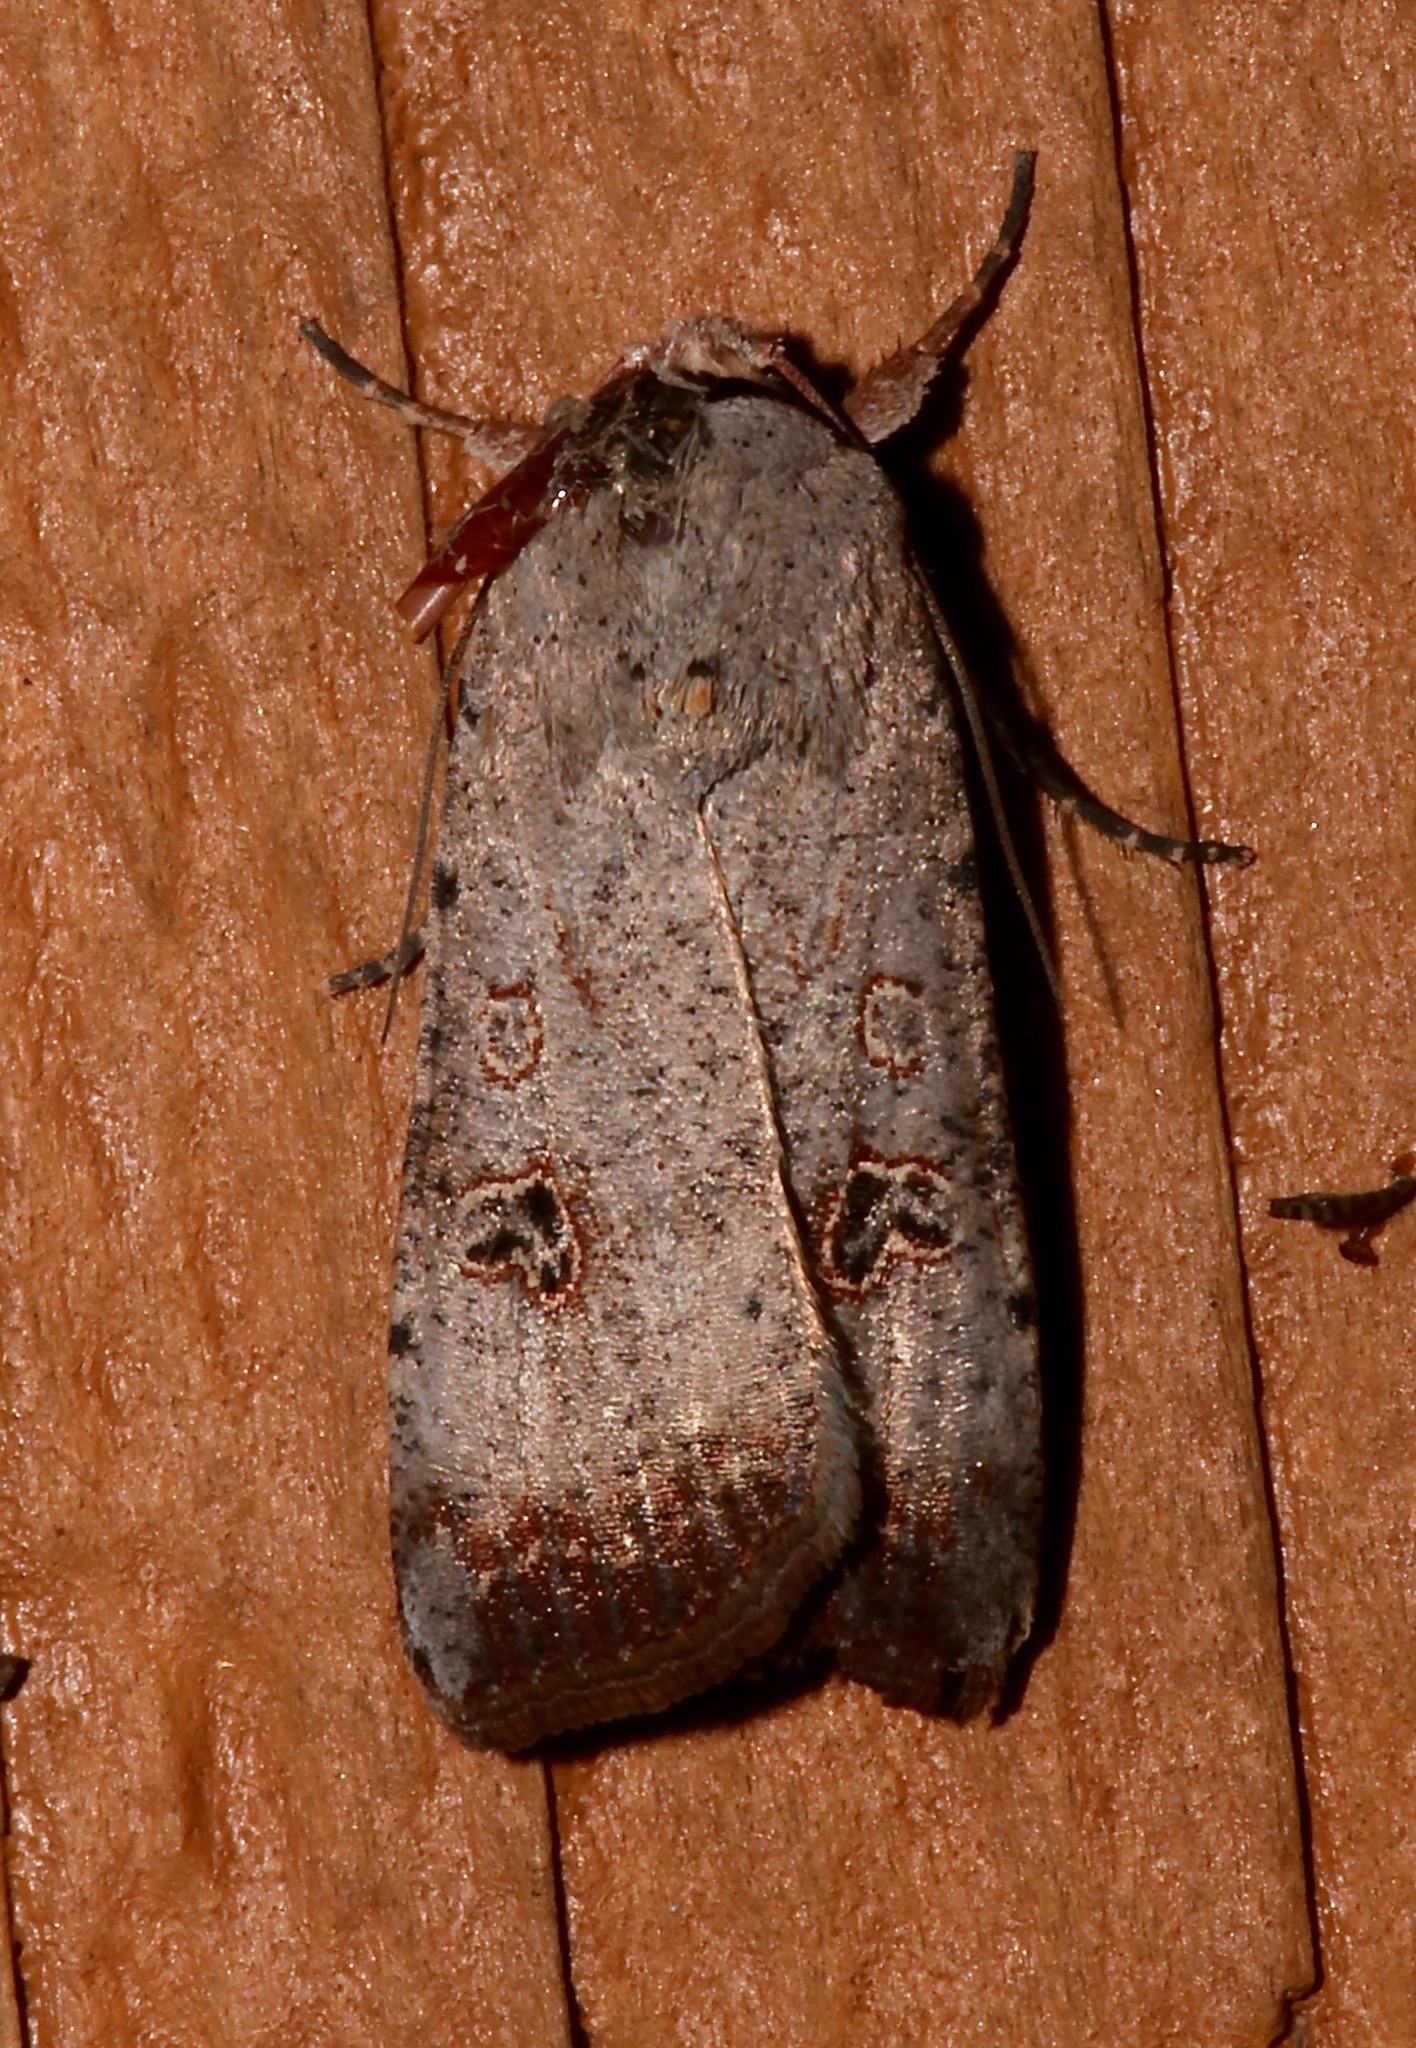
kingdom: Animalia
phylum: Arthropoda
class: Insecta
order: Lepidoptera
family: Noctuidae
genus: Anicla
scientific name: Anicla infecta
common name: Green cutworm
